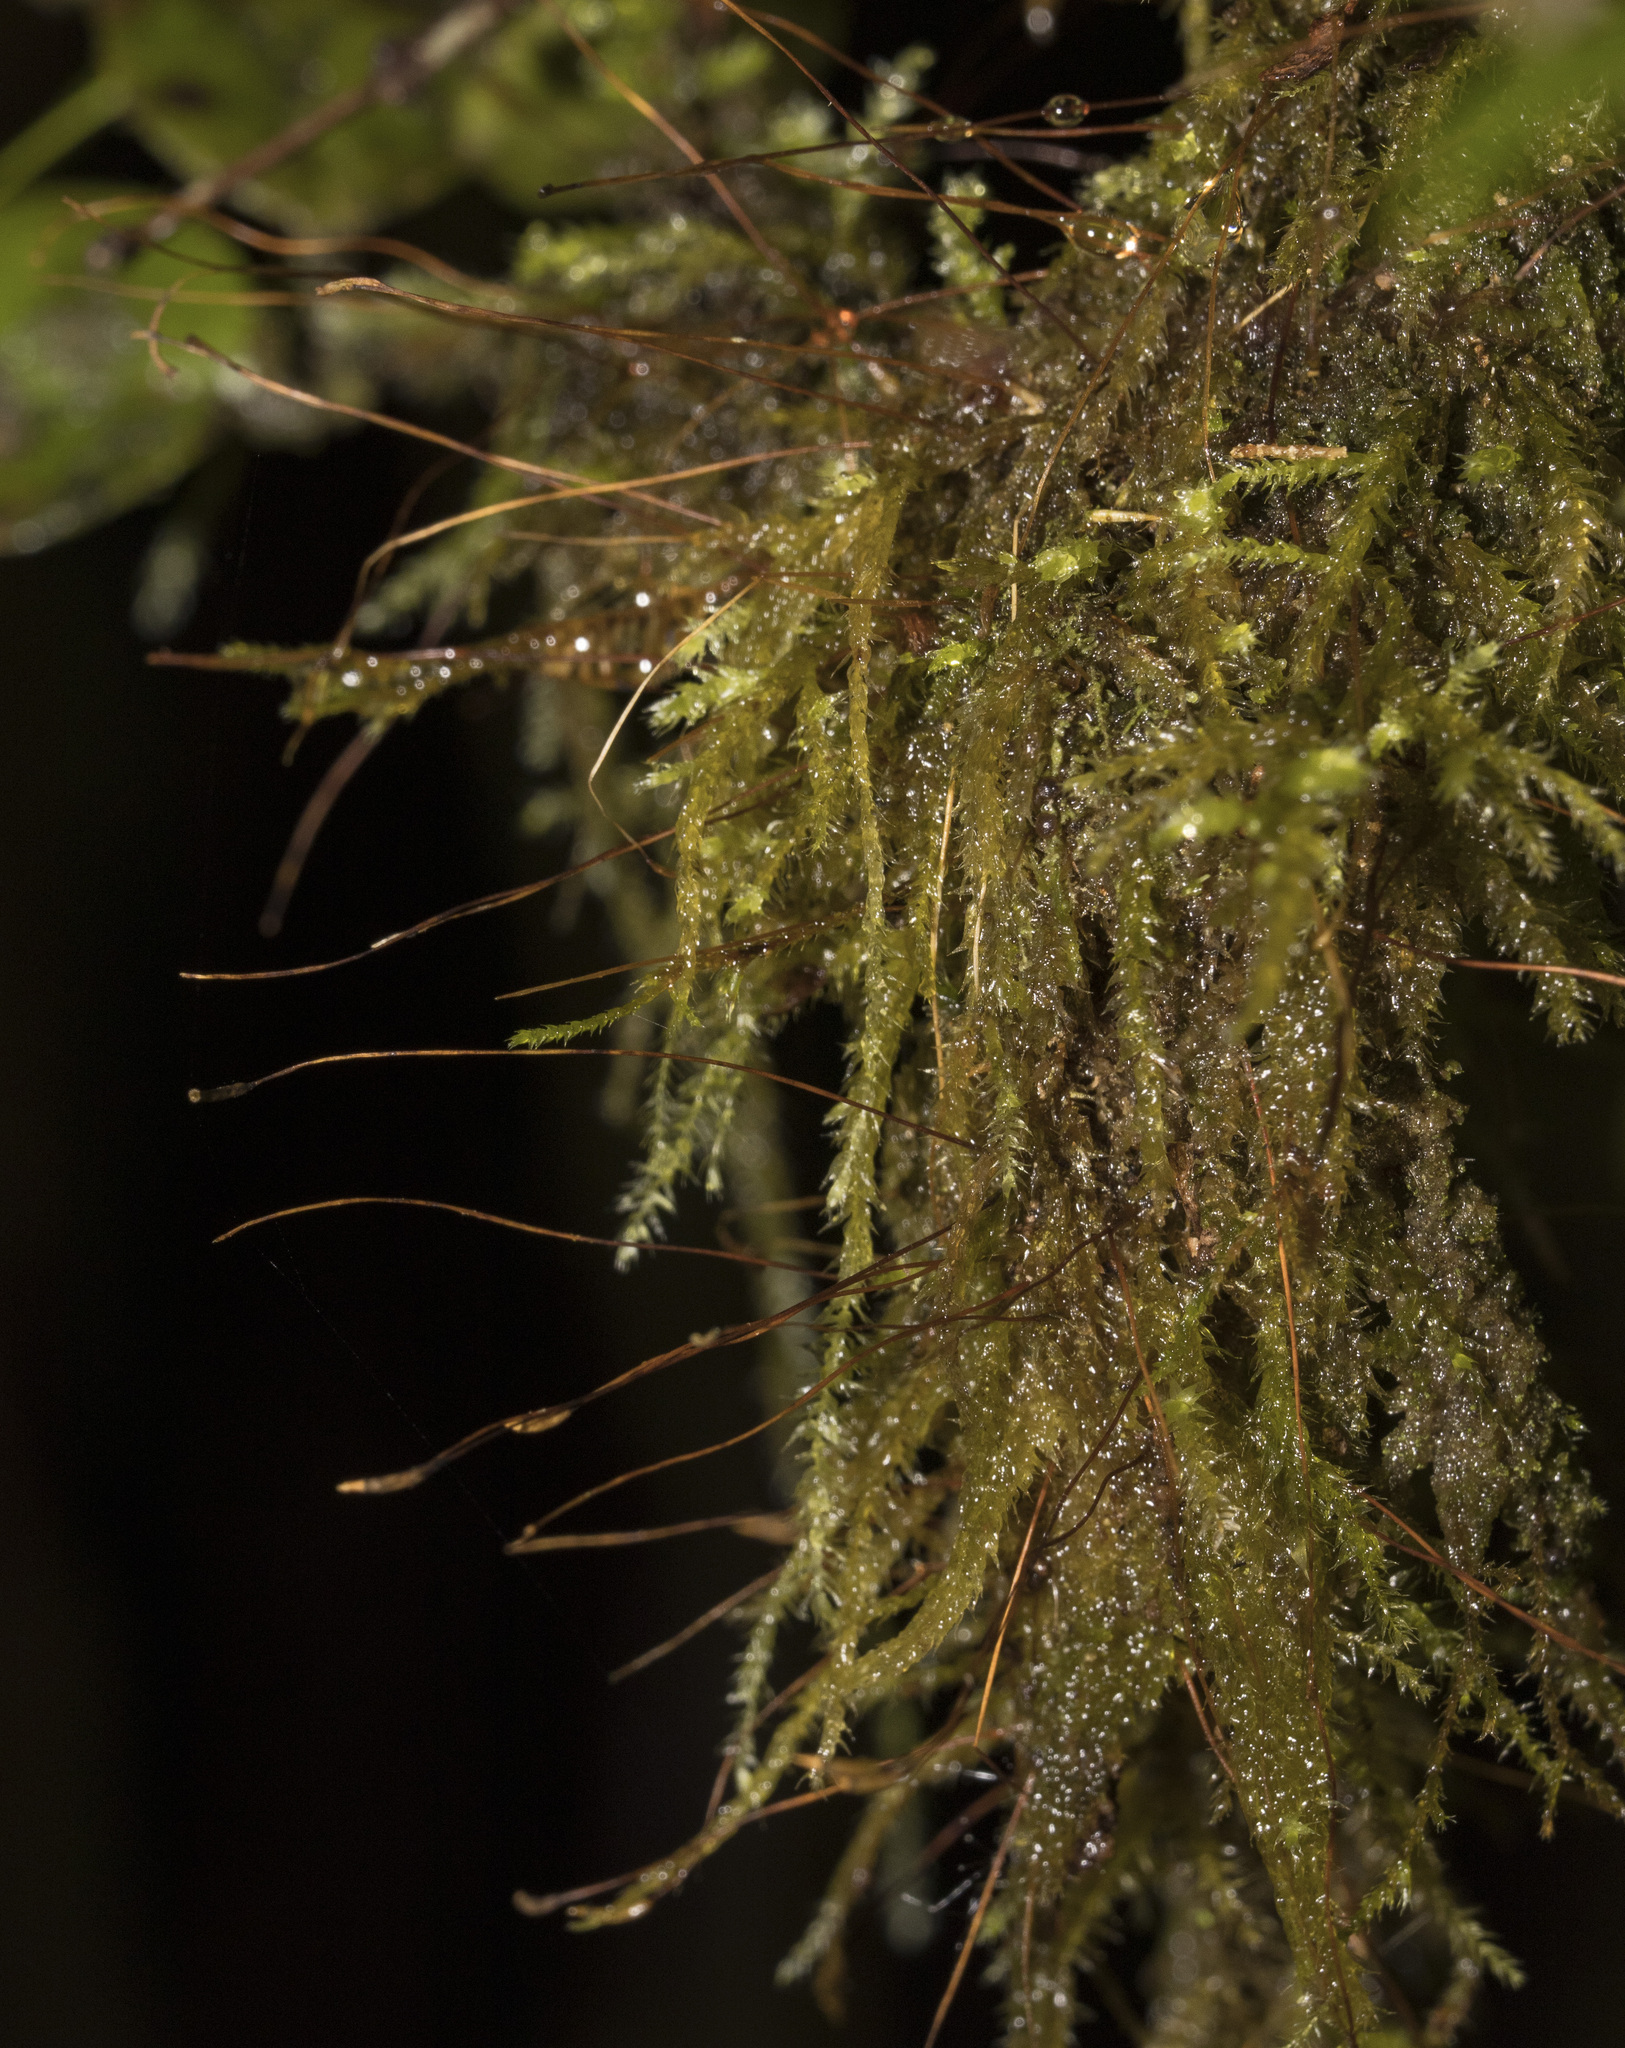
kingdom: Plantae
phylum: Bryophyta
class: Bryopsida
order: Hypnales
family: Brachytheciaceae
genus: Rhynchostegium
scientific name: Rhynchostegium conostomum
